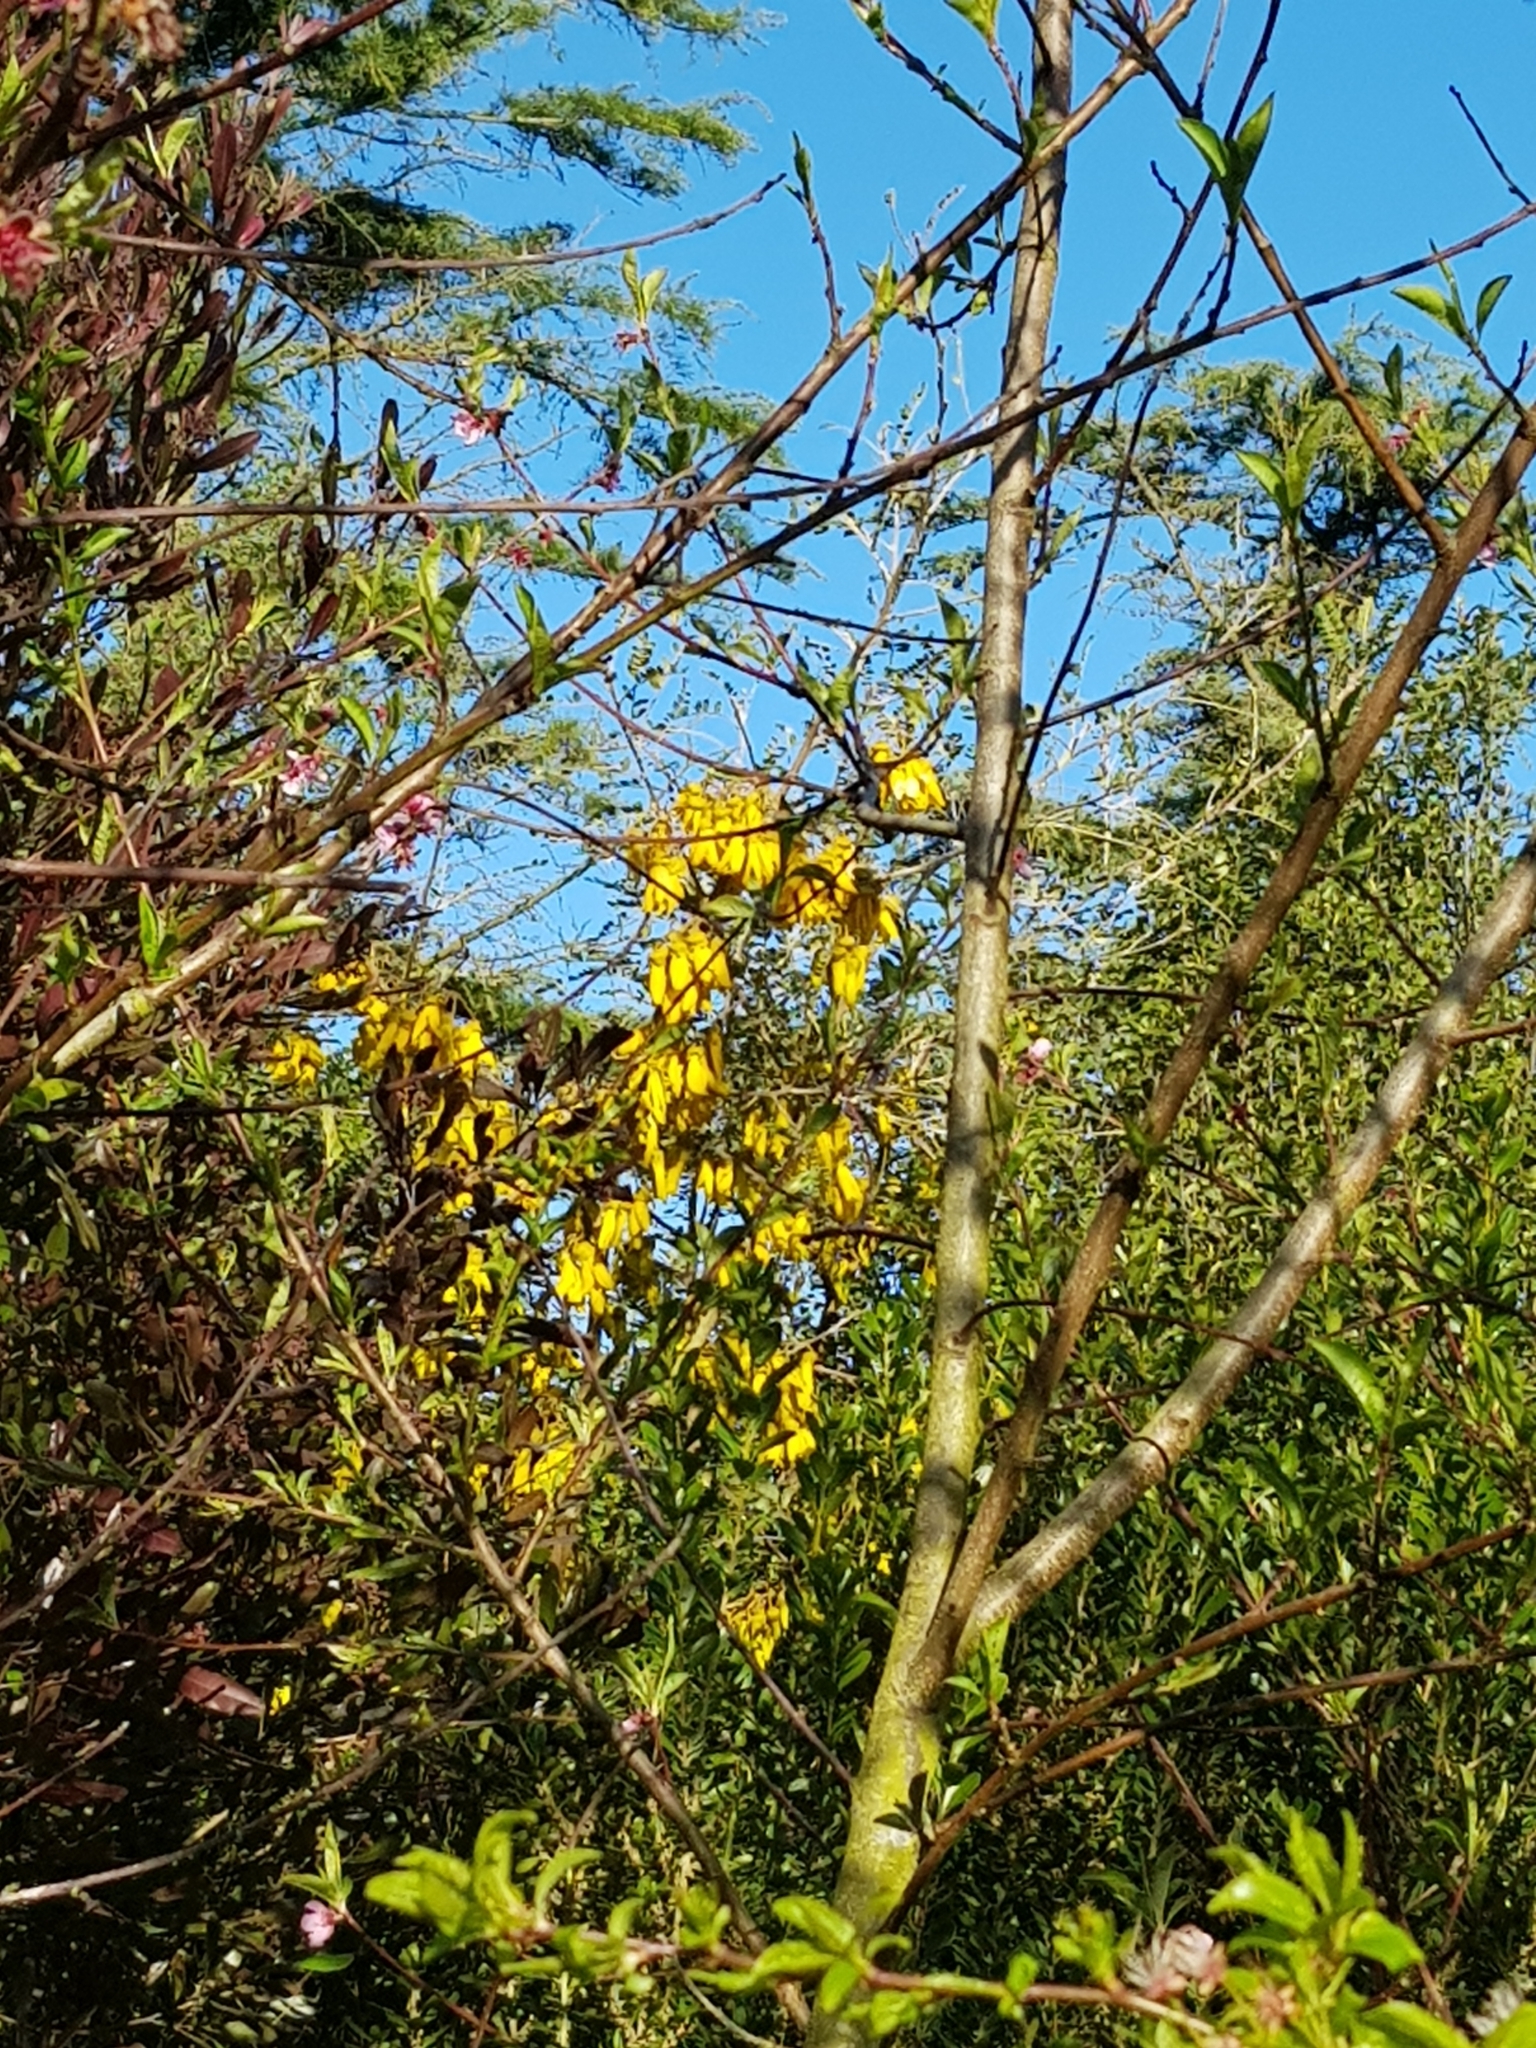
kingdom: Plantae
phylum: Tracheophyta
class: Magnoliopsida
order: Fabales
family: Fabaceae
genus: Sophora
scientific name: Sophora microphylla
